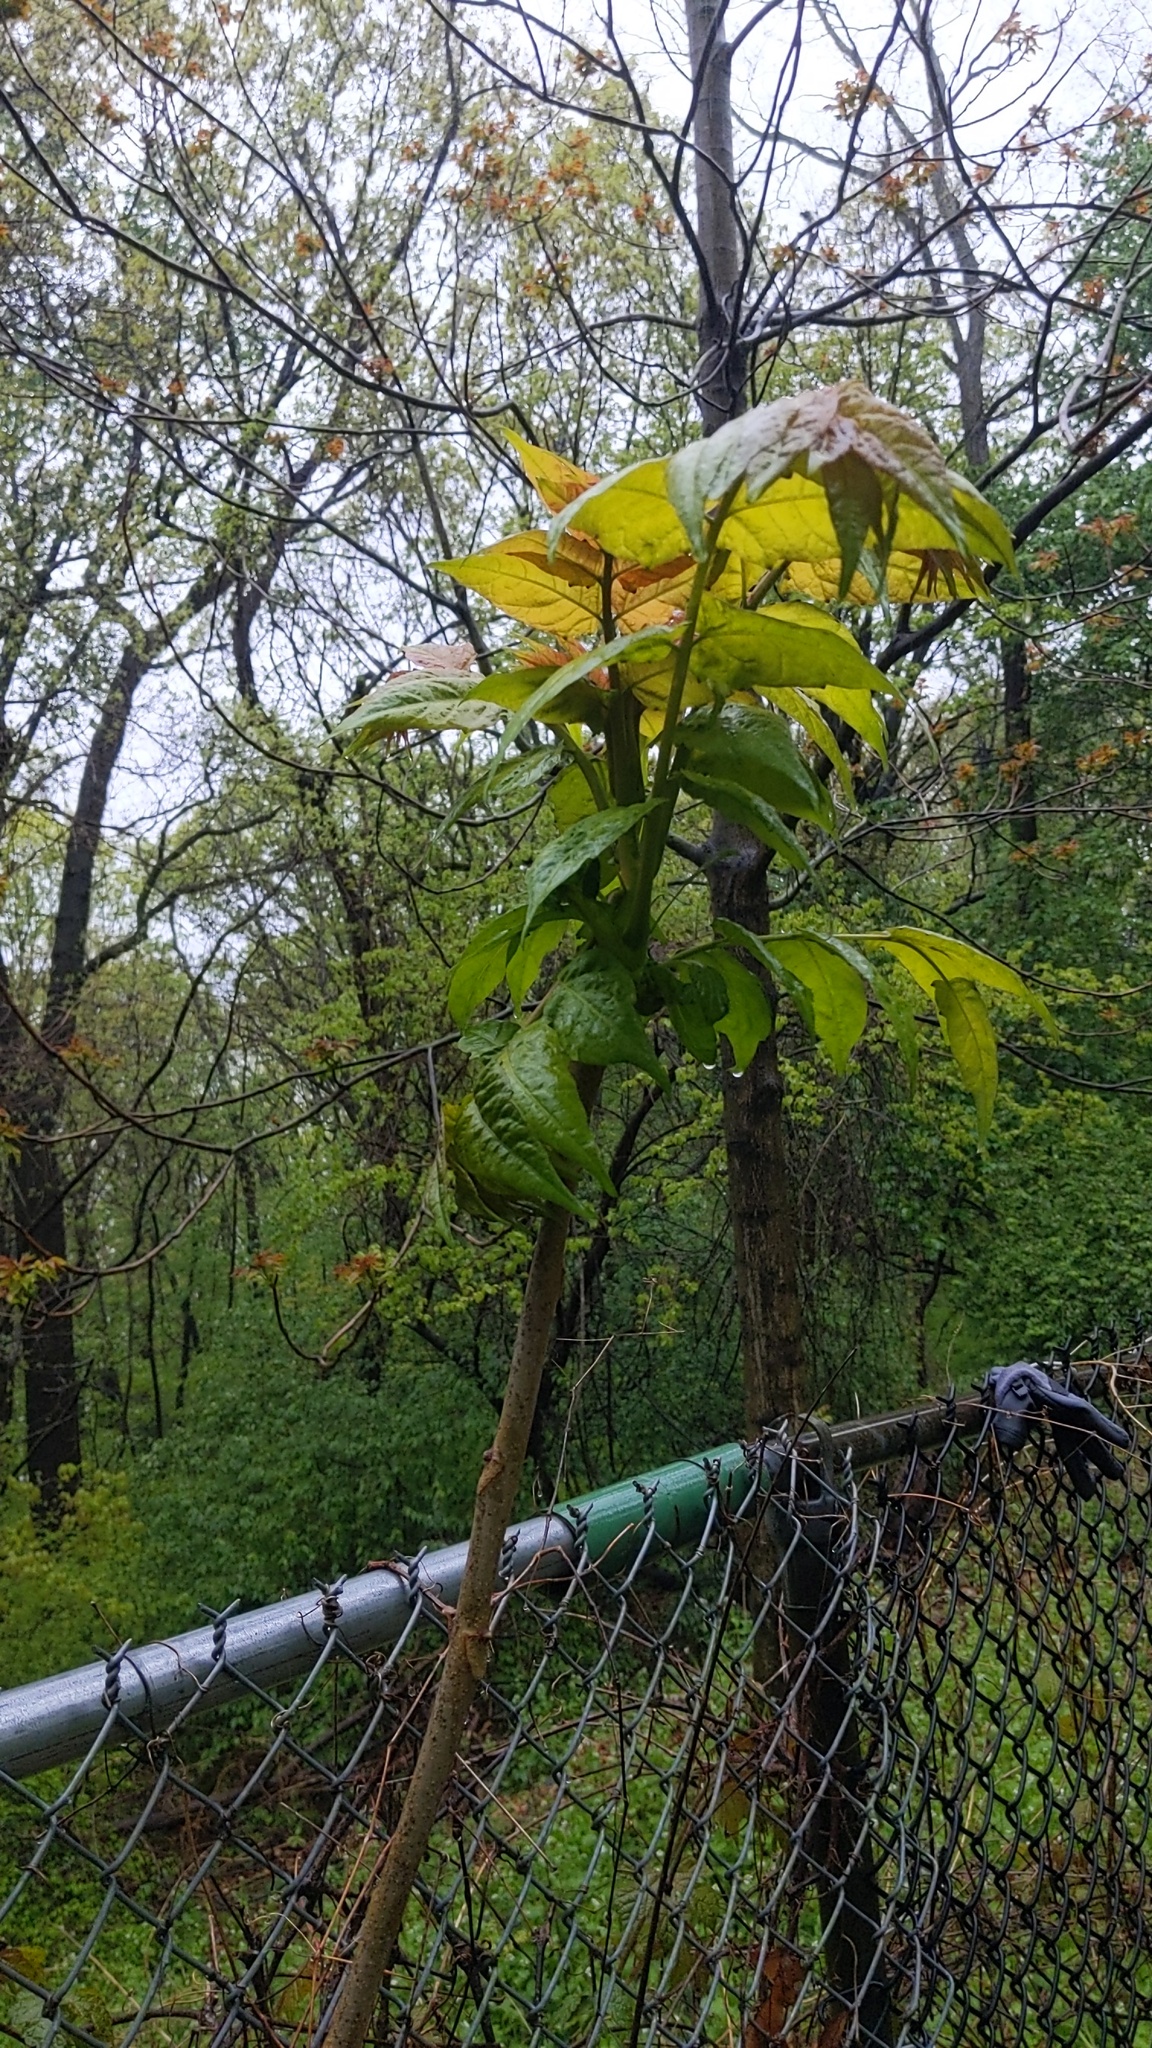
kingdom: Plantae
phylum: Tracheophyta
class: Magnoliopsida
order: Sapindales
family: Simaroubaceae
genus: Ailanthus
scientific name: Ailanthus altissima
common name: Tree-of-heaven
